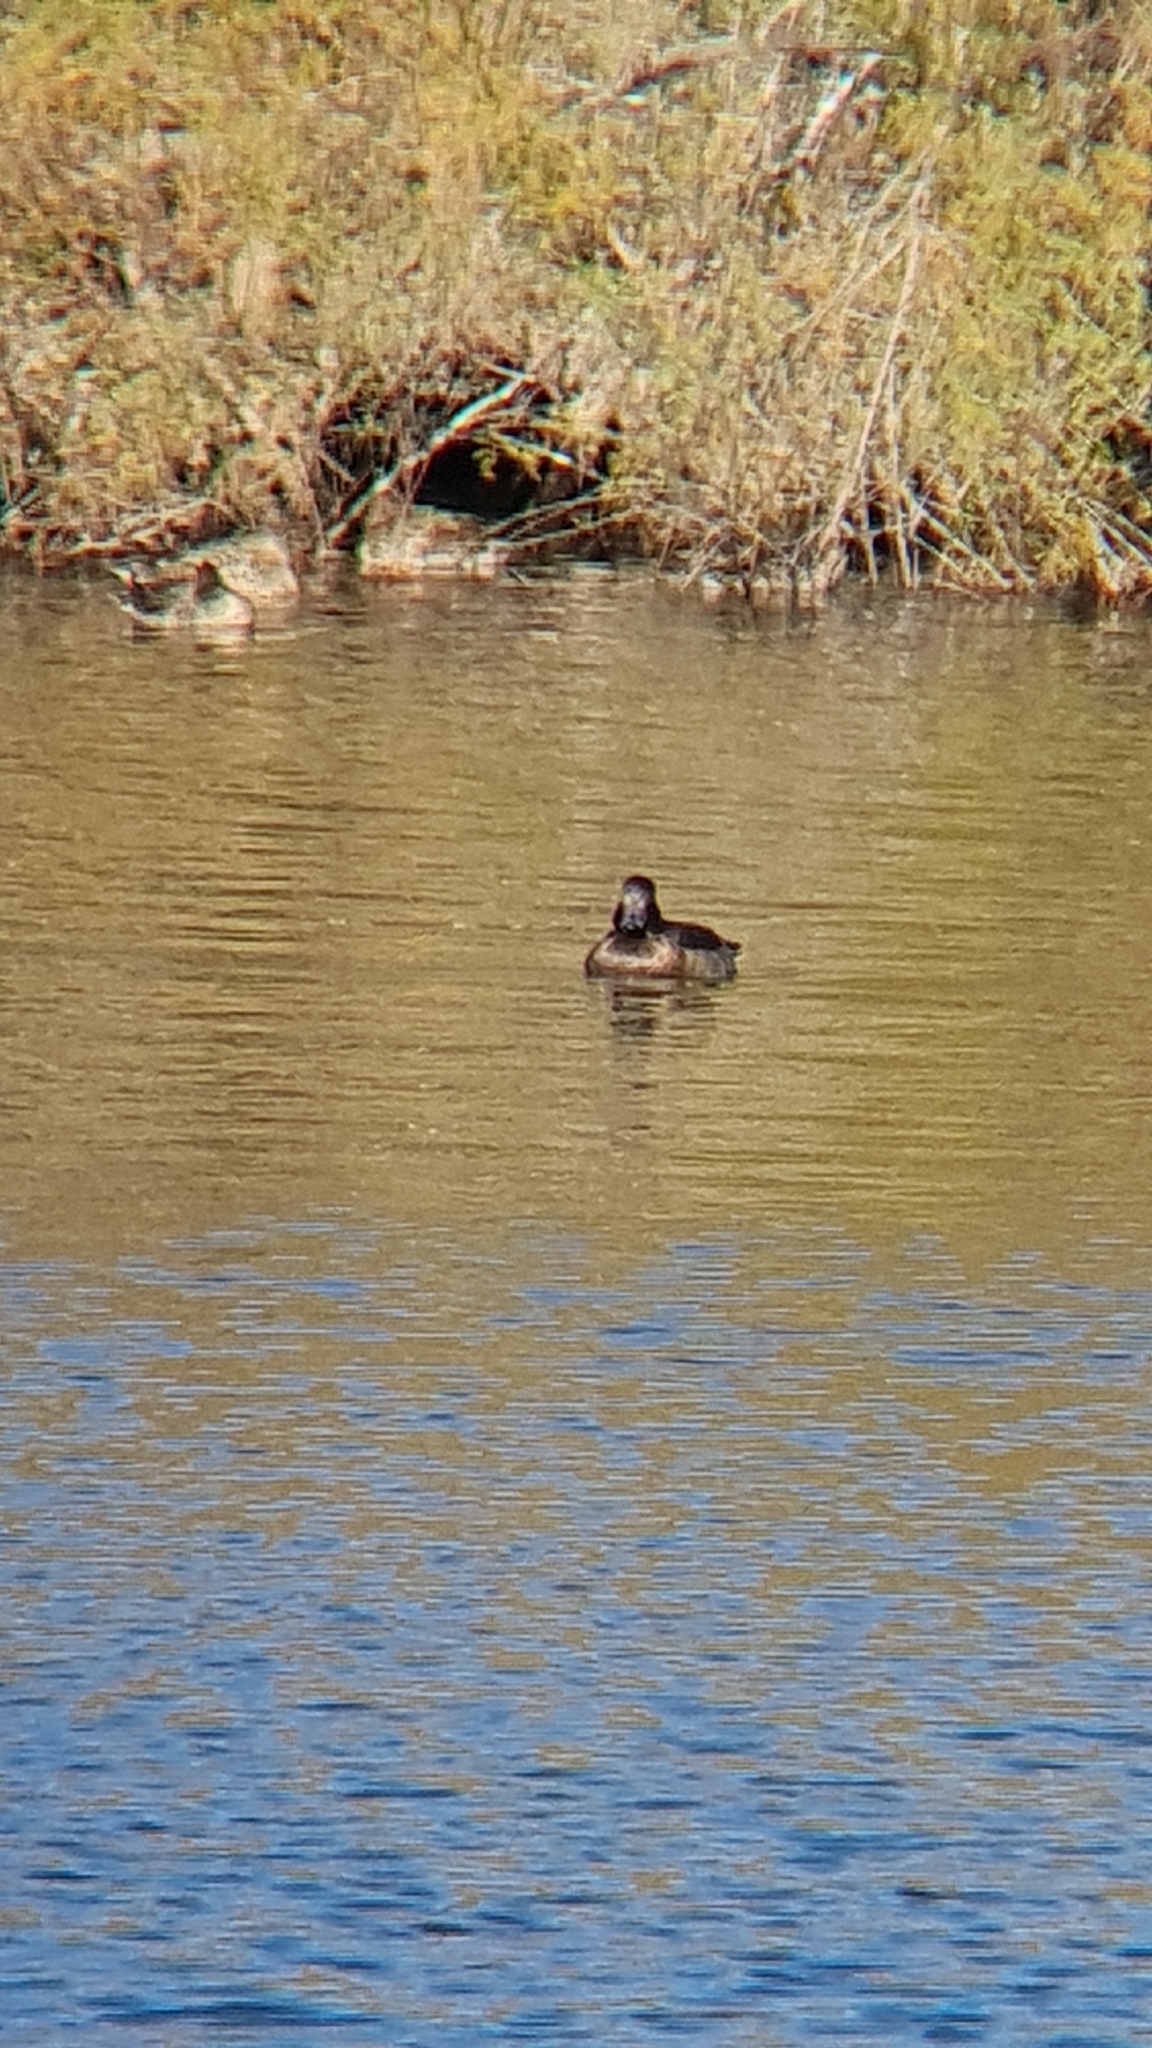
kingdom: Animalia
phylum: Chordata
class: Aves
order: Anseriformes
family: Anatidae
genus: Aythya
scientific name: Aythya fuligula
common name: Tufted duck
